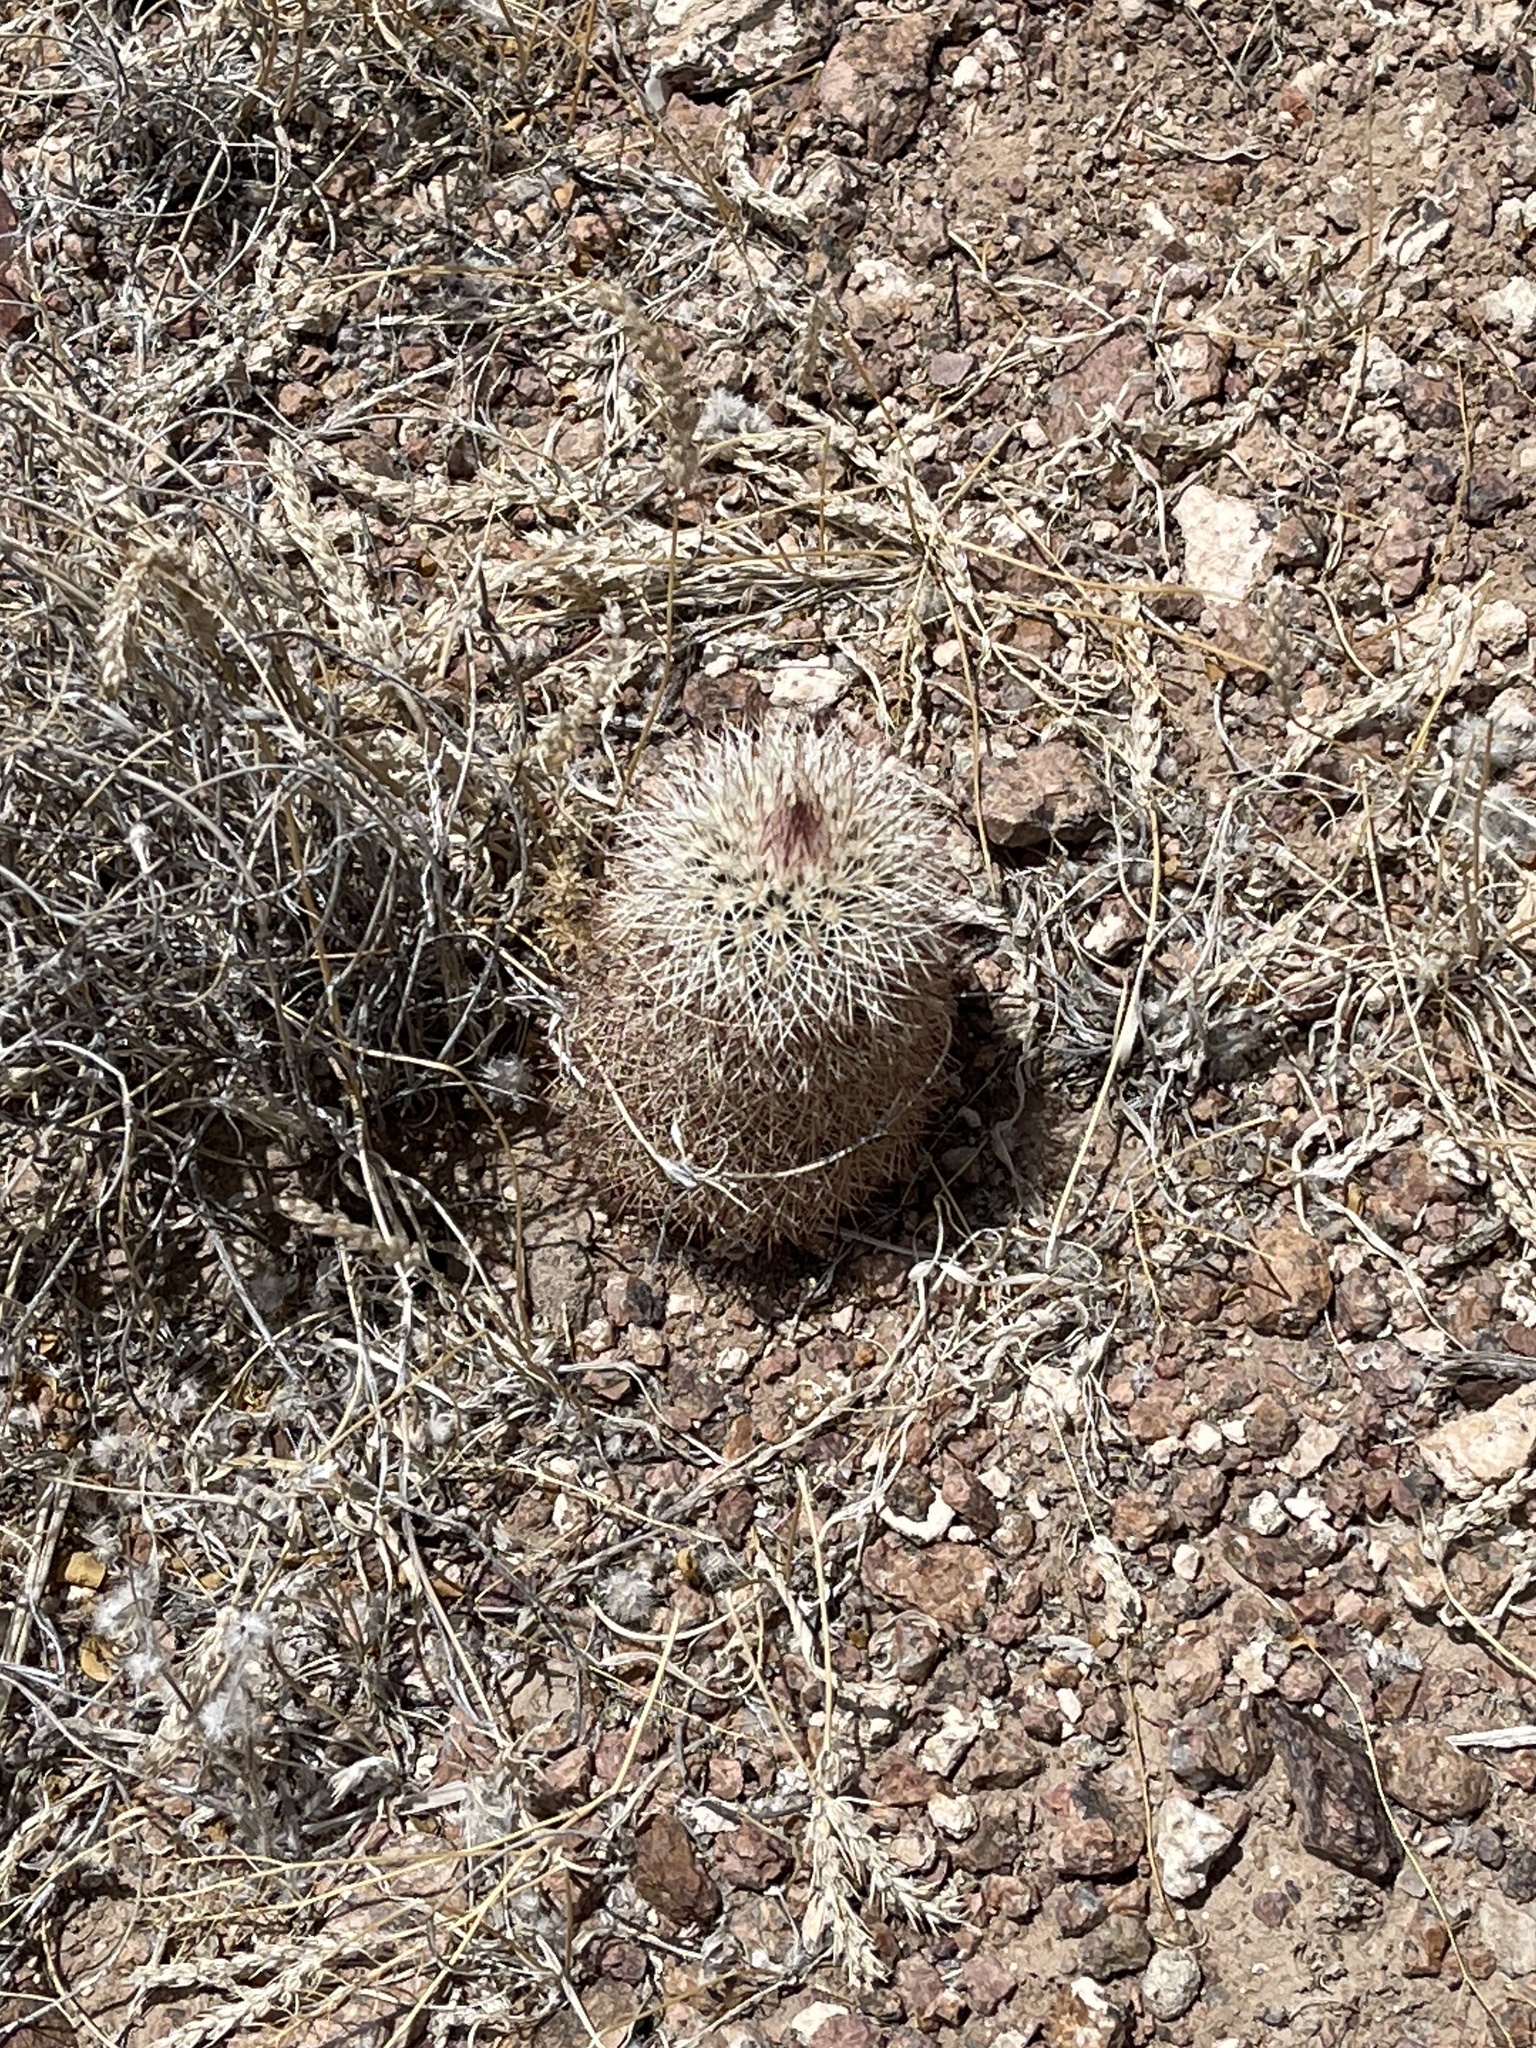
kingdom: Plantae
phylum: Tracheophyta
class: Magnoliopsida
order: Caryophyllales
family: Cactaceae
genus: Echinocereus
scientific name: Echinocereus dasyacanthus
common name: Spiny hedgehog cactus
